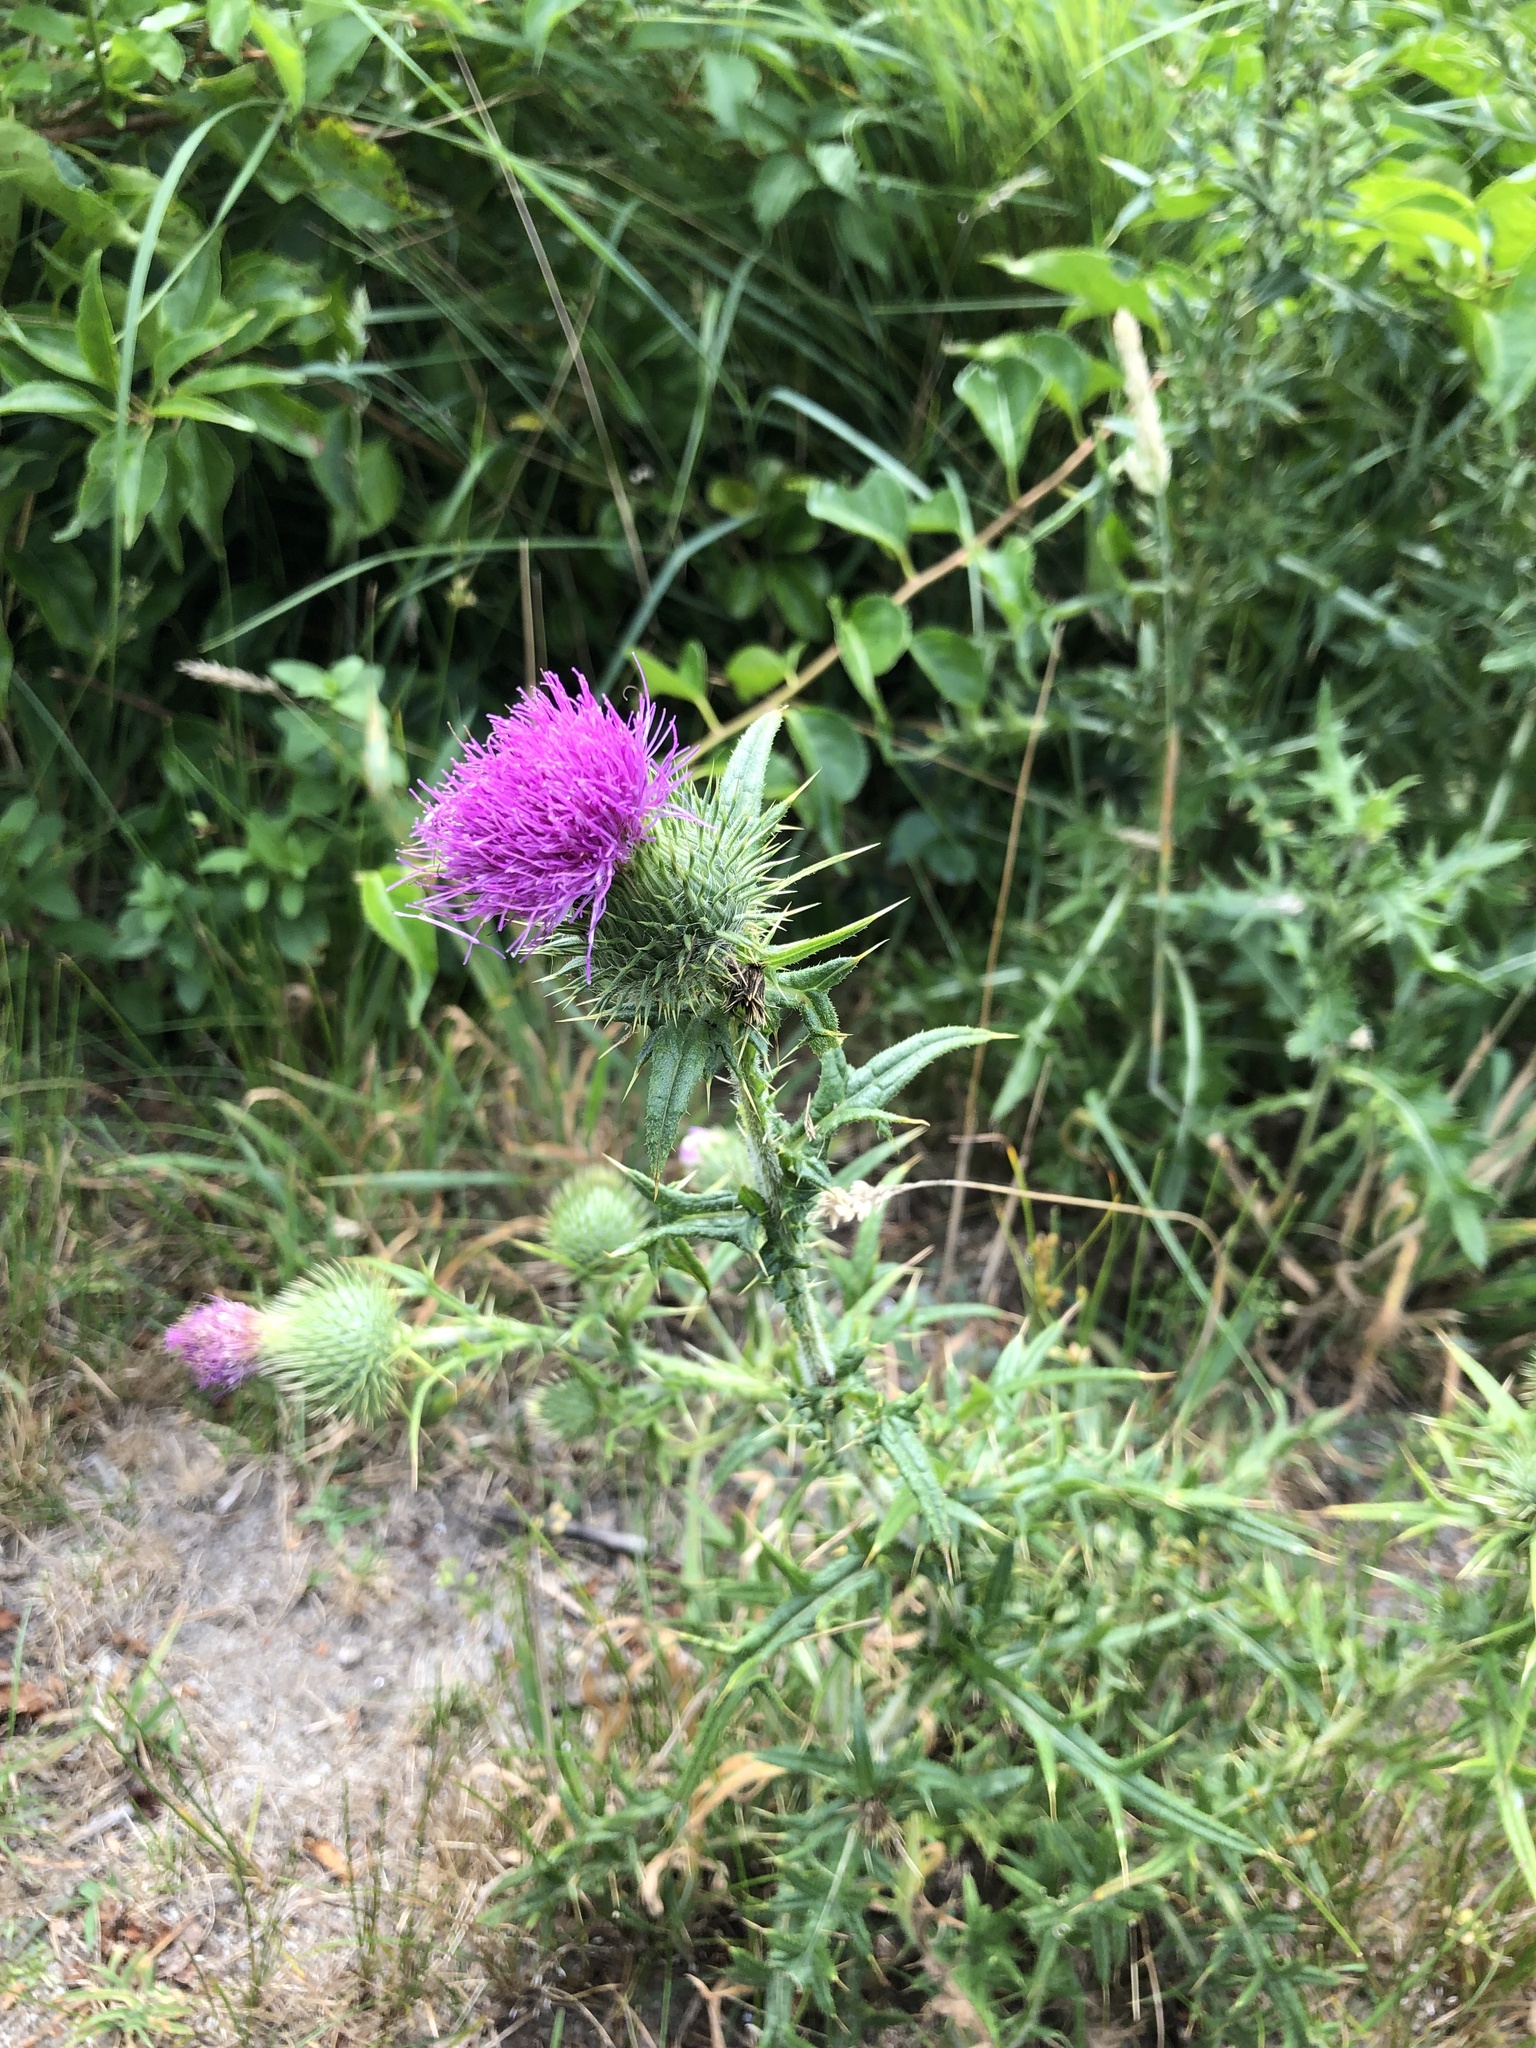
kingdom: Plantae
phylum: Tracheophyta
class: Magnoliopsida
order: Asterales
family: Asteraceae
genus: Cirsium
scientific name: Cirsium vulgare
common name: Bull thistle
